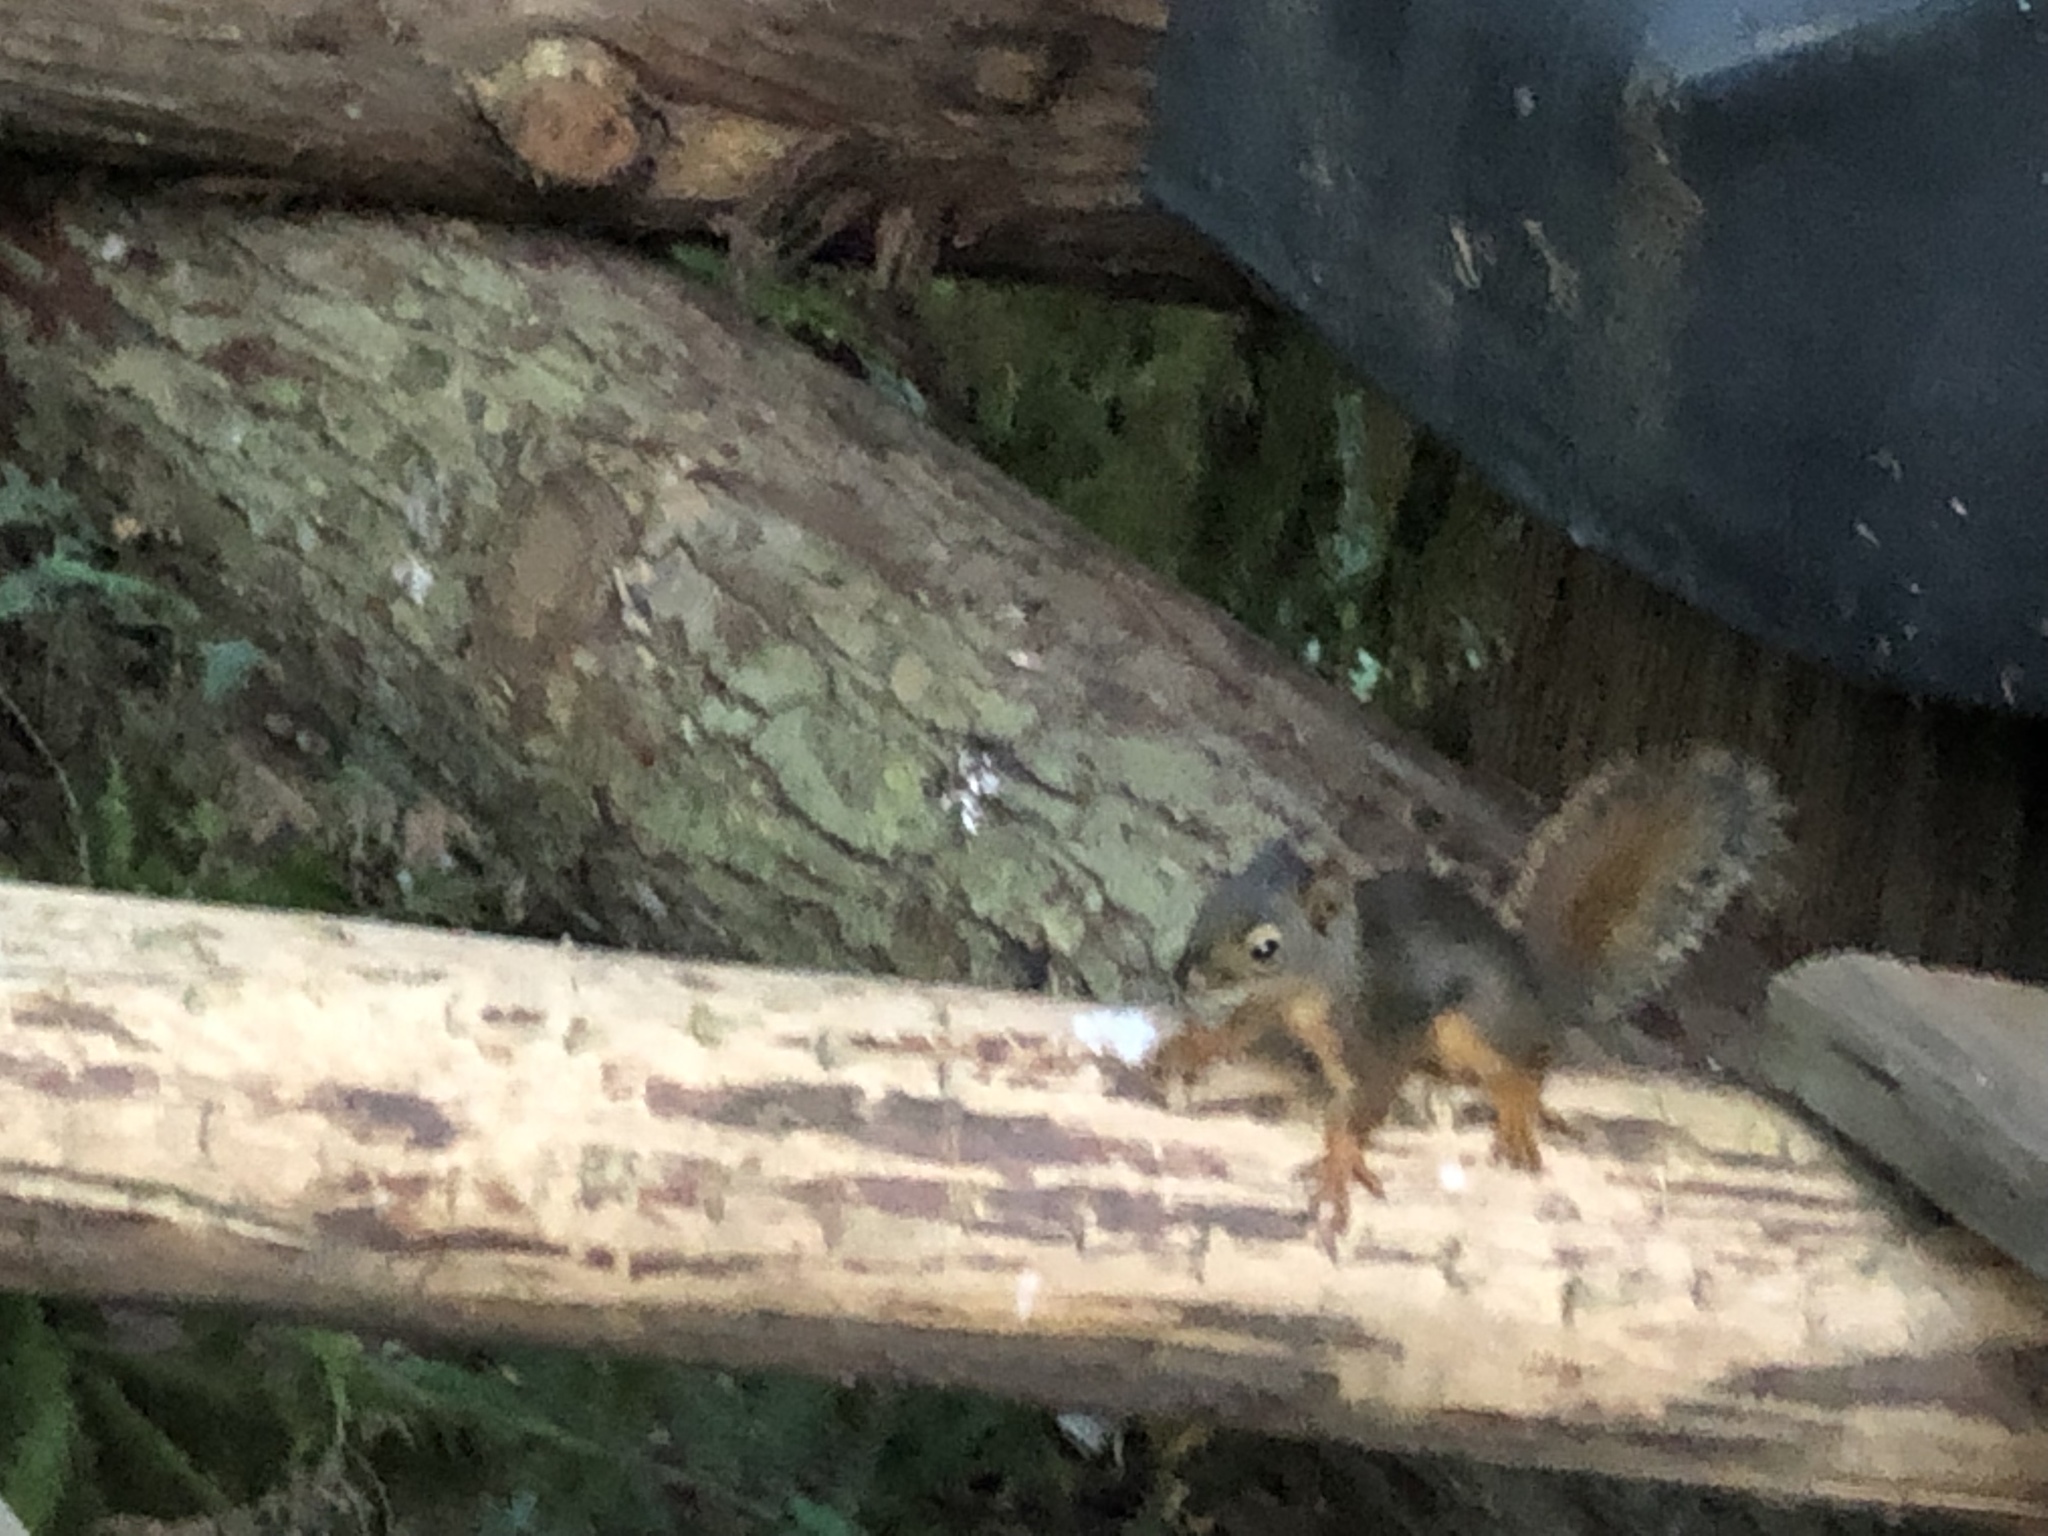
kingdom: Animalia
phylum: Chordata
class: Mammalia
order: Rodentia
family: Sciuridae
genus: Tamiasciurus
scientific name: Tamiasciurus douglasii
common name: Douglas's squirrel
